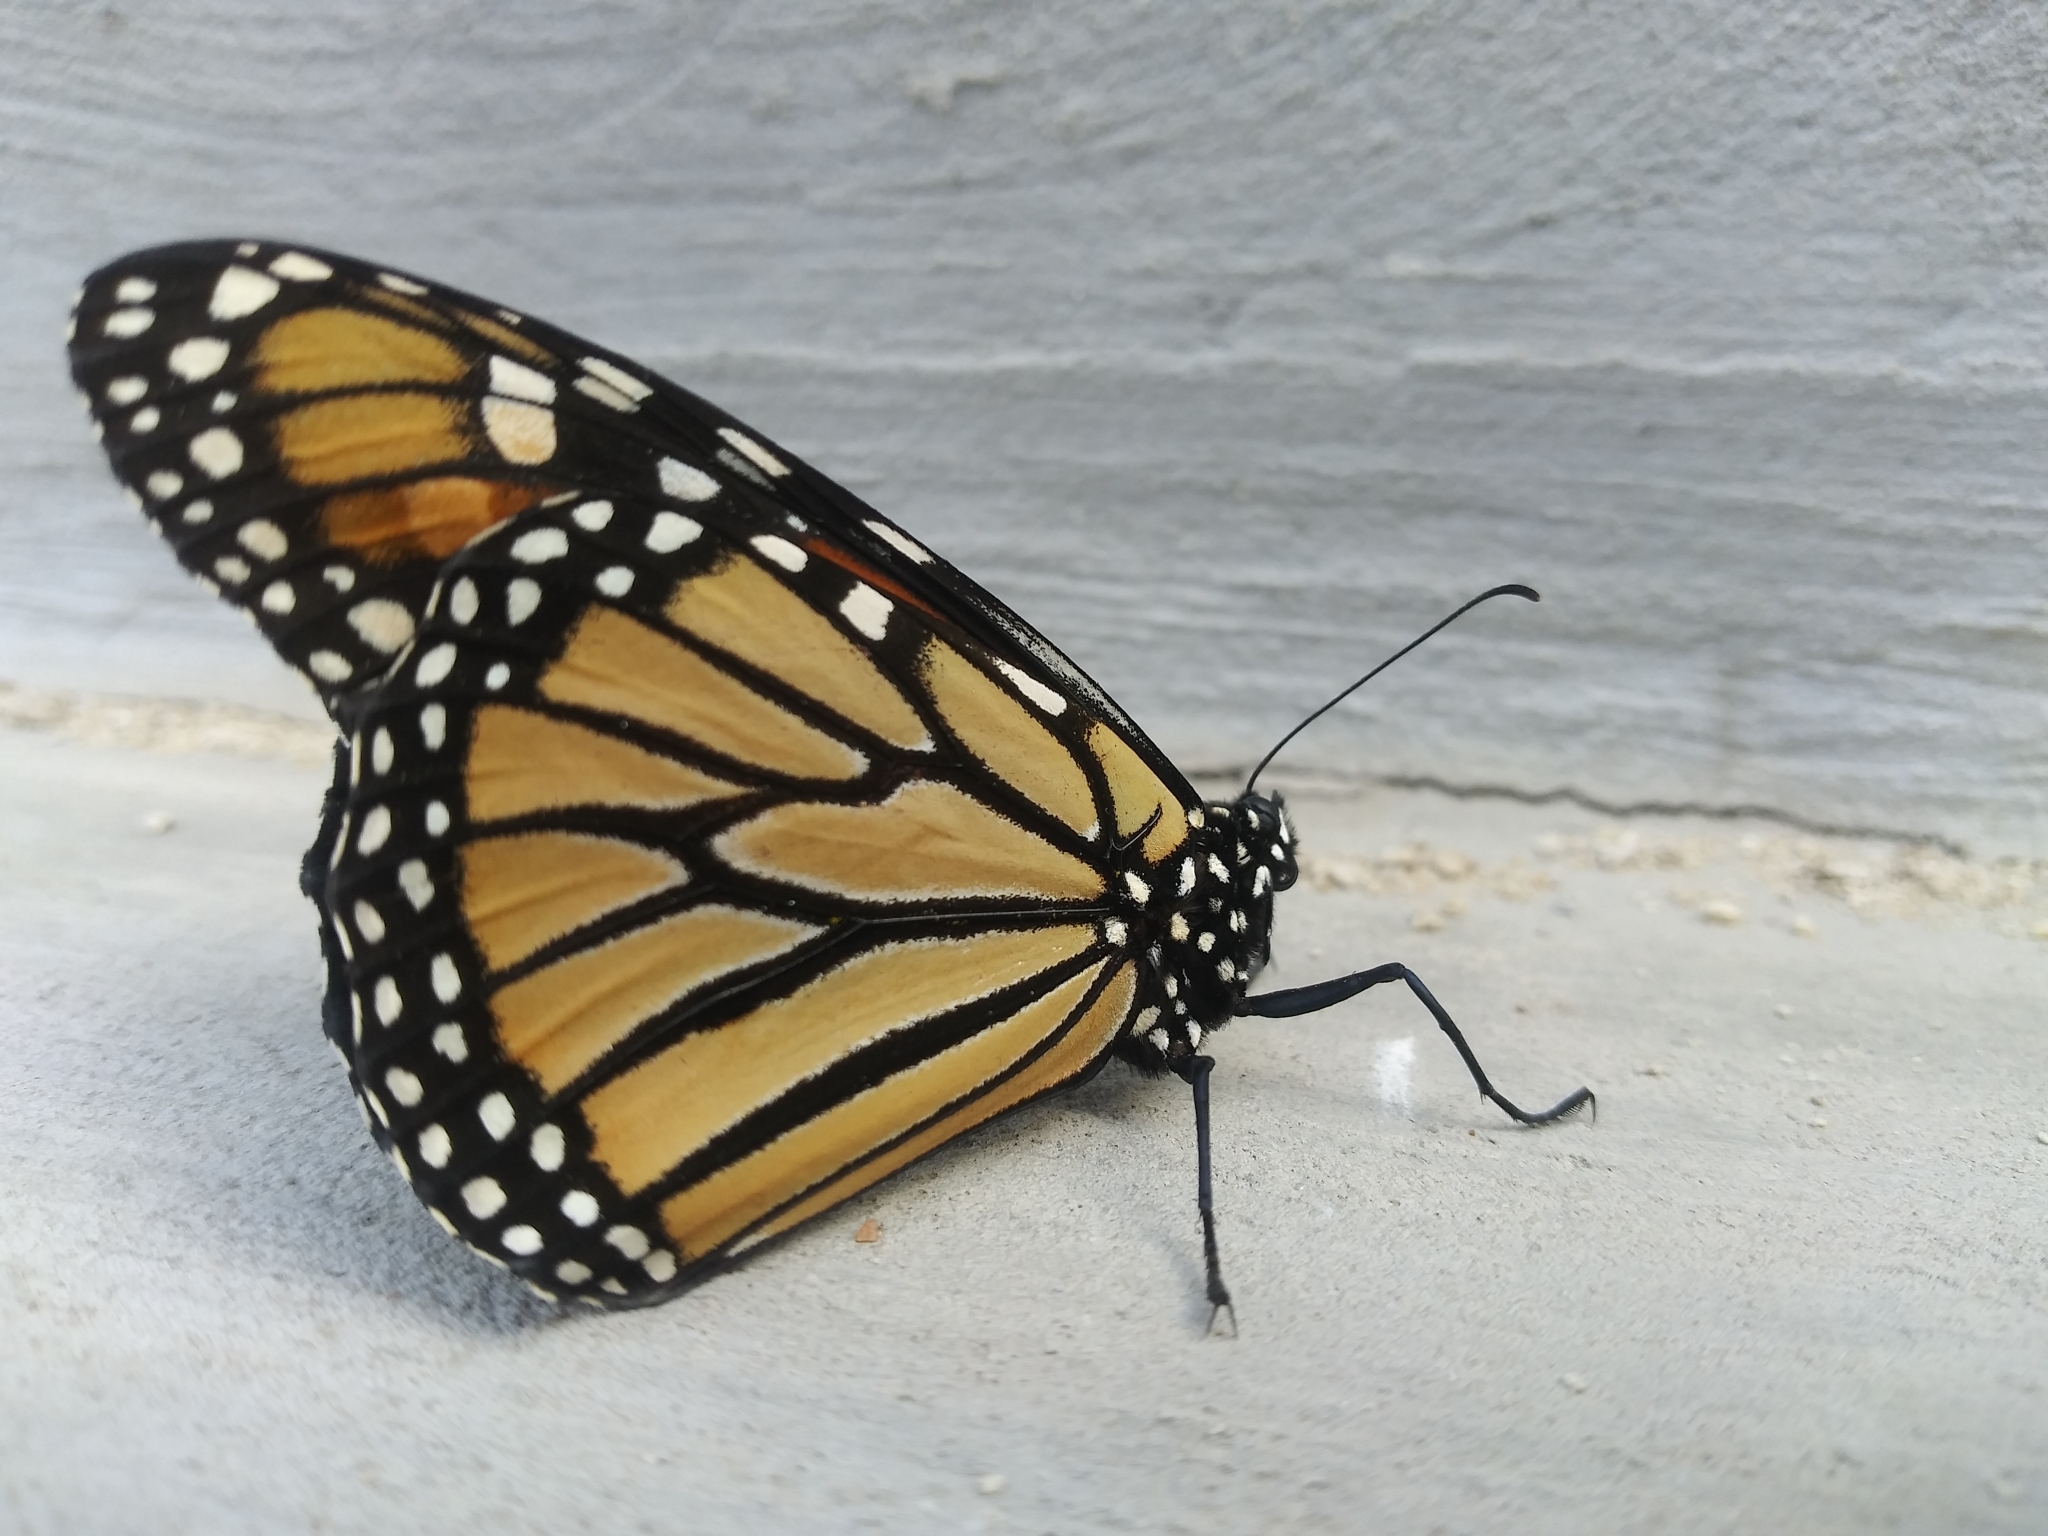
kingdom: Animalia
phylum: Arthropoda
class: Insecta
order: Lepidoptera
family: Nymphalidae
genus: Danaus
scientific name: Danaus plexippus
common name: Monarch
